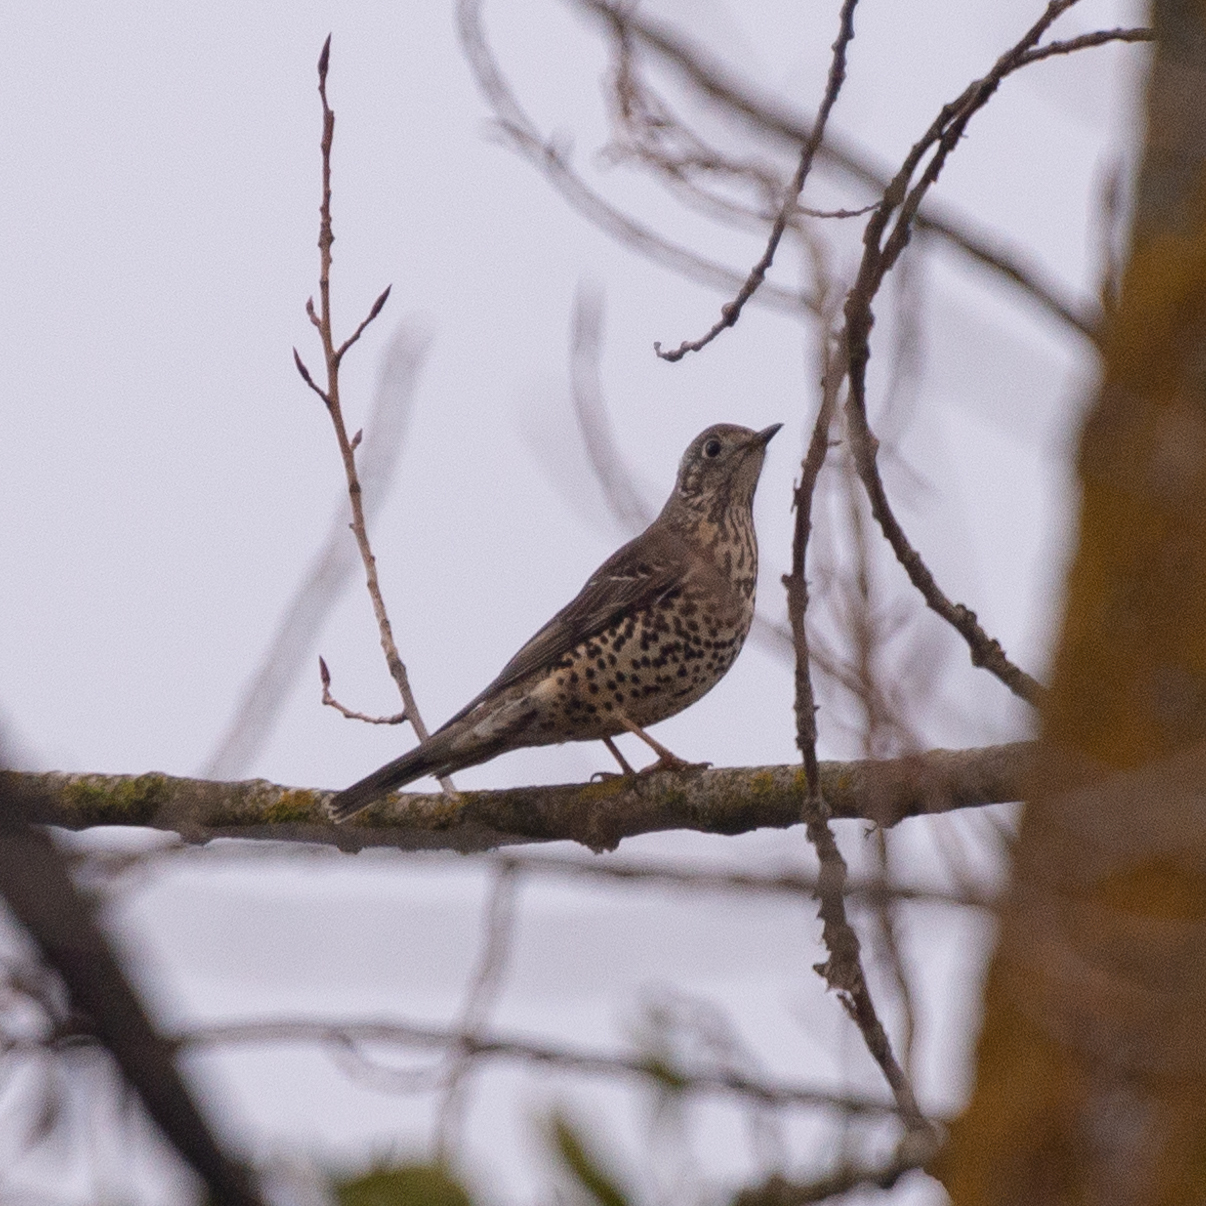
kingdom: Animalia
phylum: Chordata
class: Aves
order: Passeriformes
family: Turdidae
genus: Turdus
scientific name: Turdus viscivorus
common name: Mistle thrush
